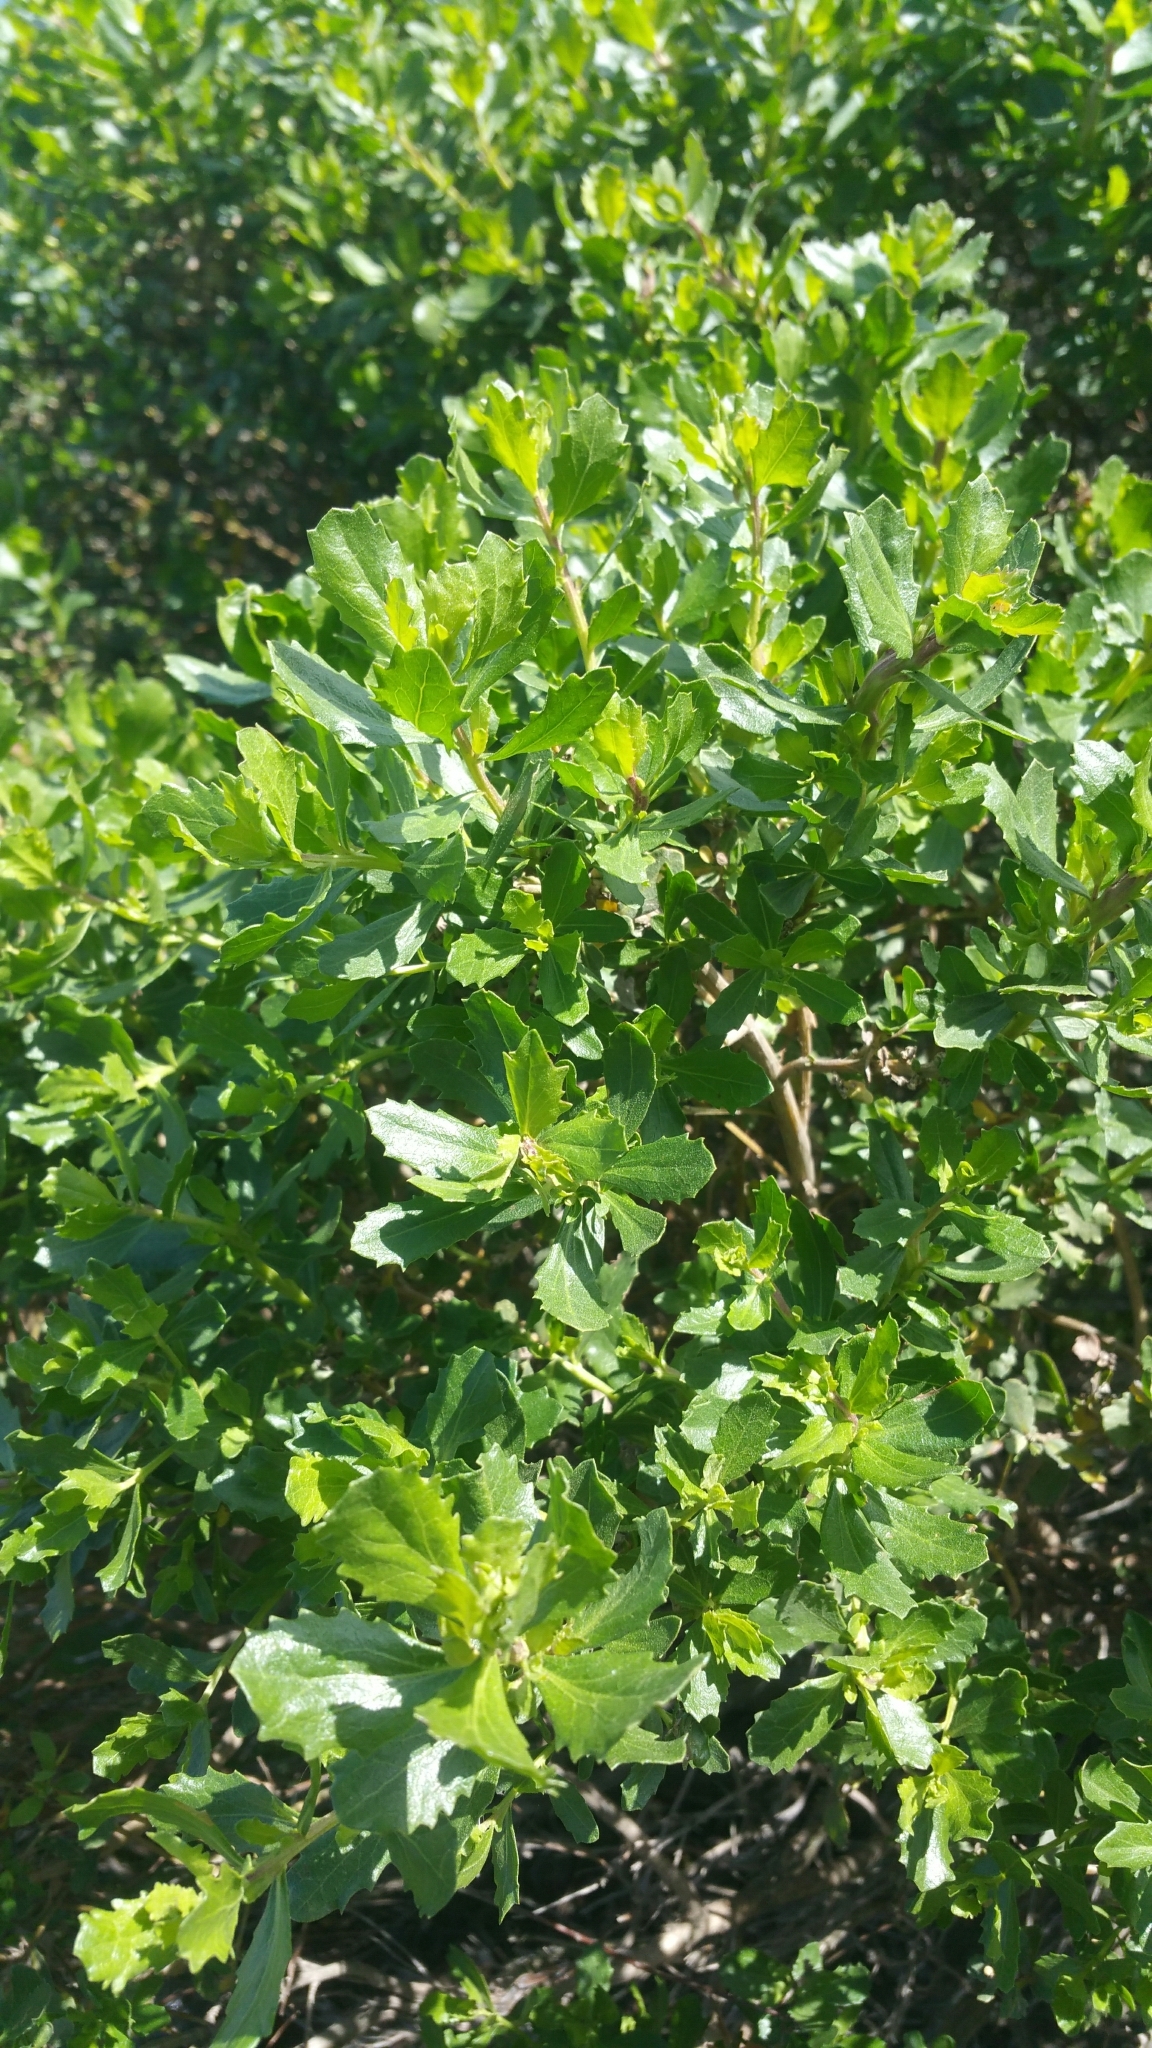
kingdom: Plantae
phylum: Tracheophyta
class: Magnoliopsida
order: Asterales
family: Asteraceae
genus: Baccharis
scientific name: Baccharis pilularis
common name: Coyotebrush
